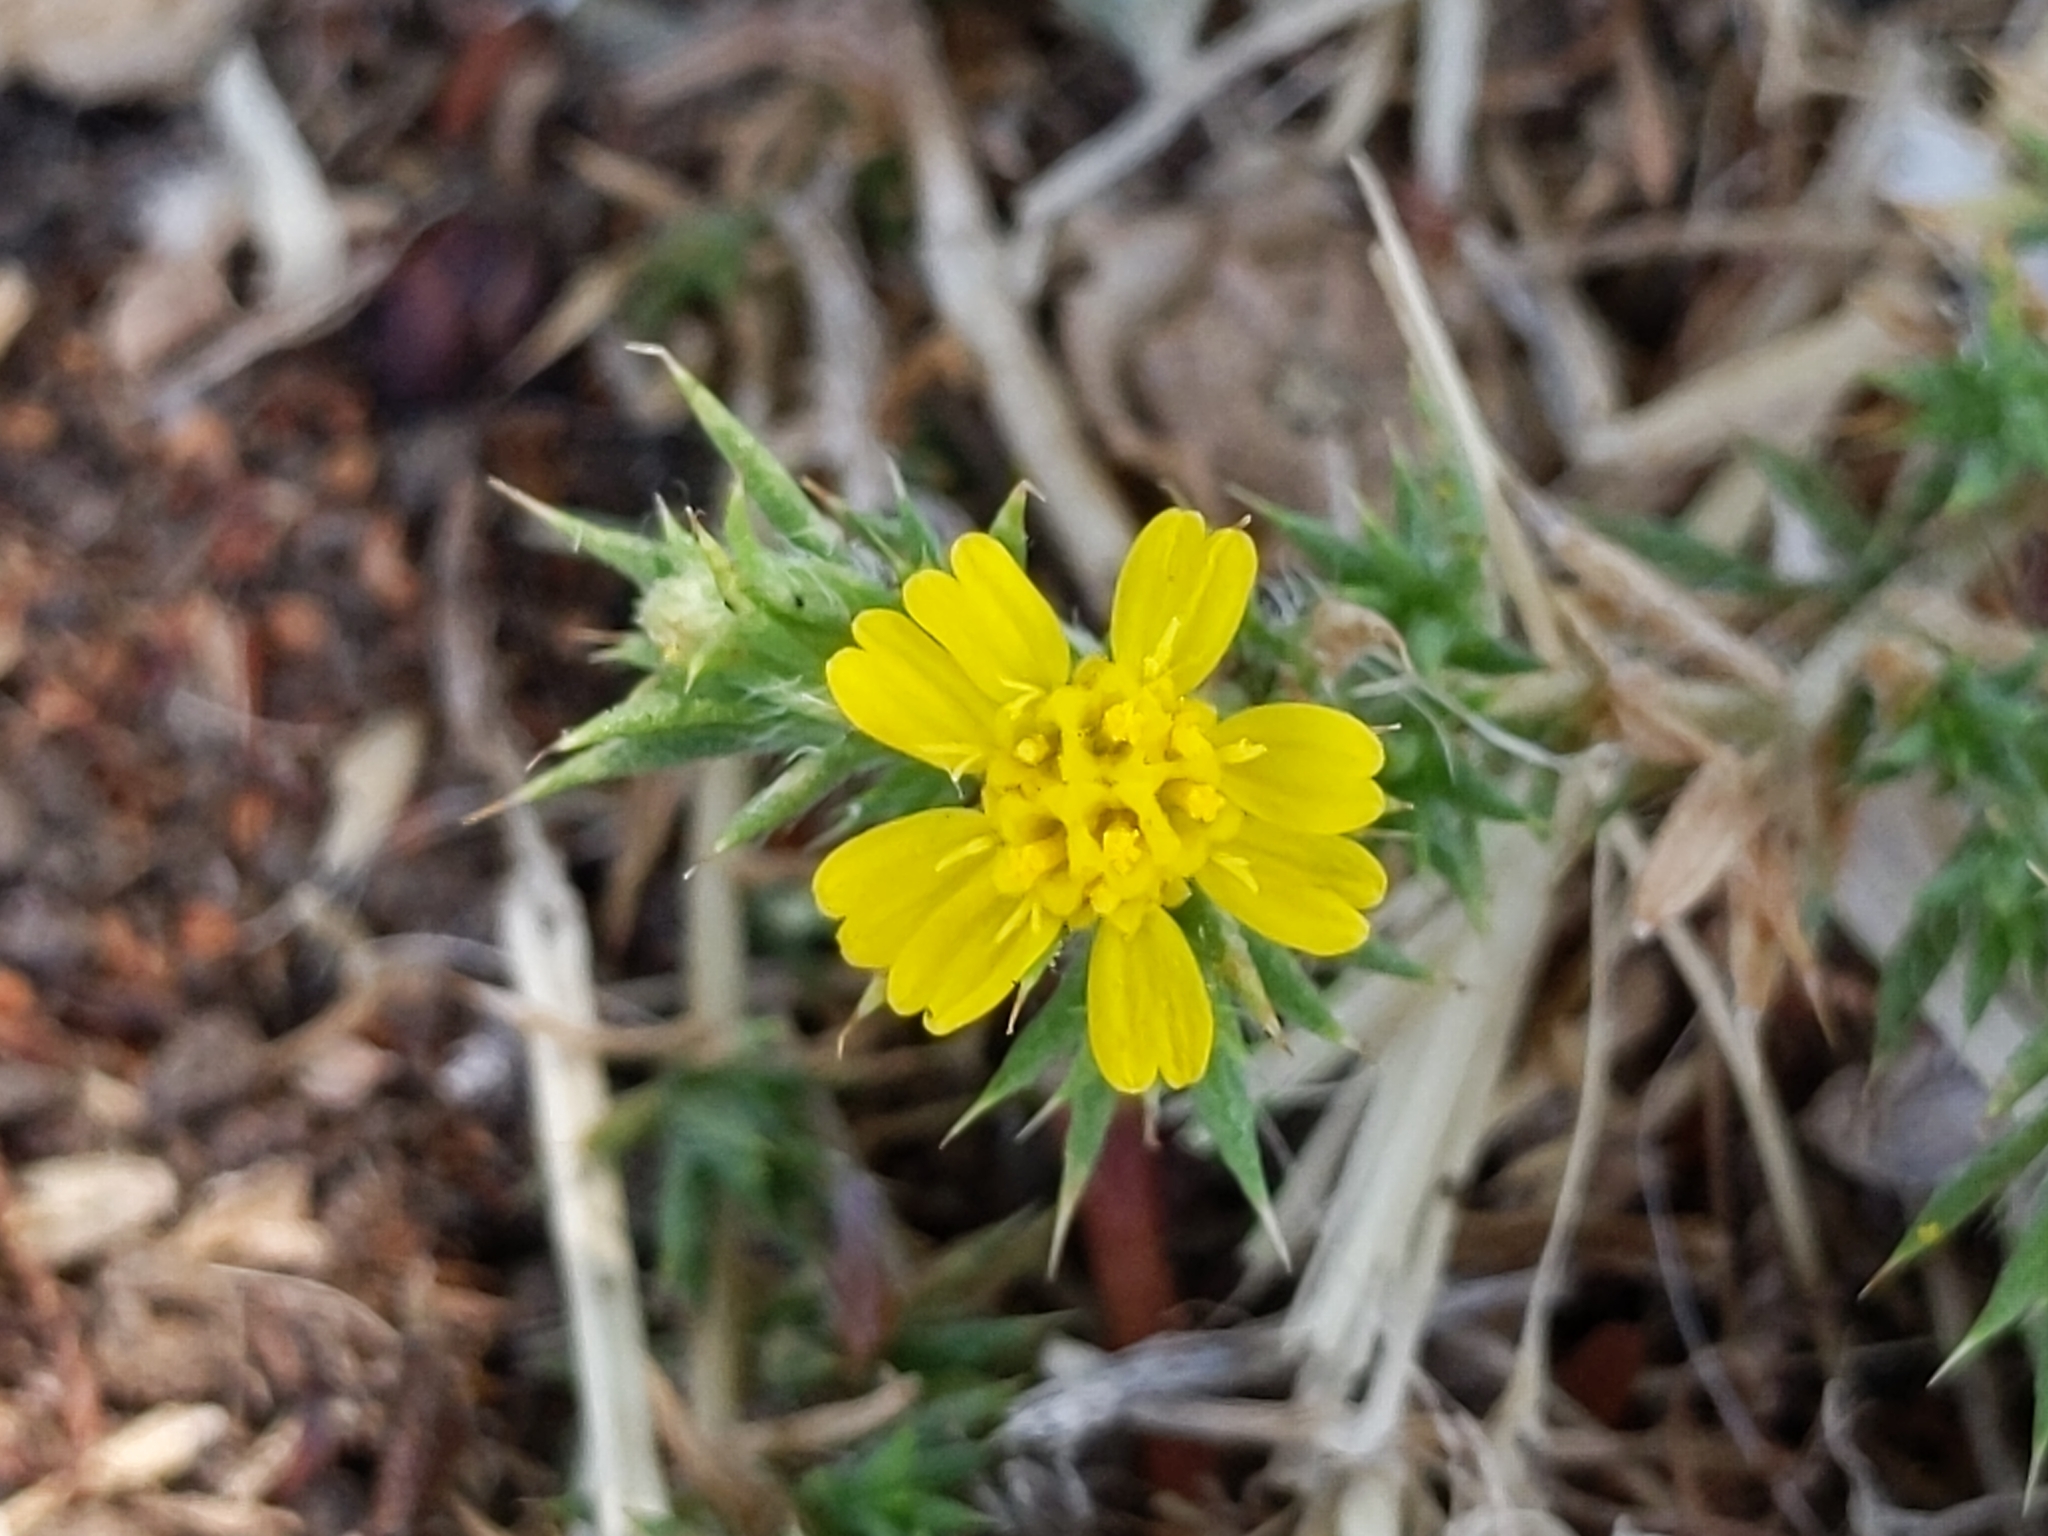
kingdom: Plantae
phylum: Tracheophyta
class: Magnoliopsida
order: Asterales
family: Asteraceae
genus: Centromadia
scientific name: Centromadia parryi
